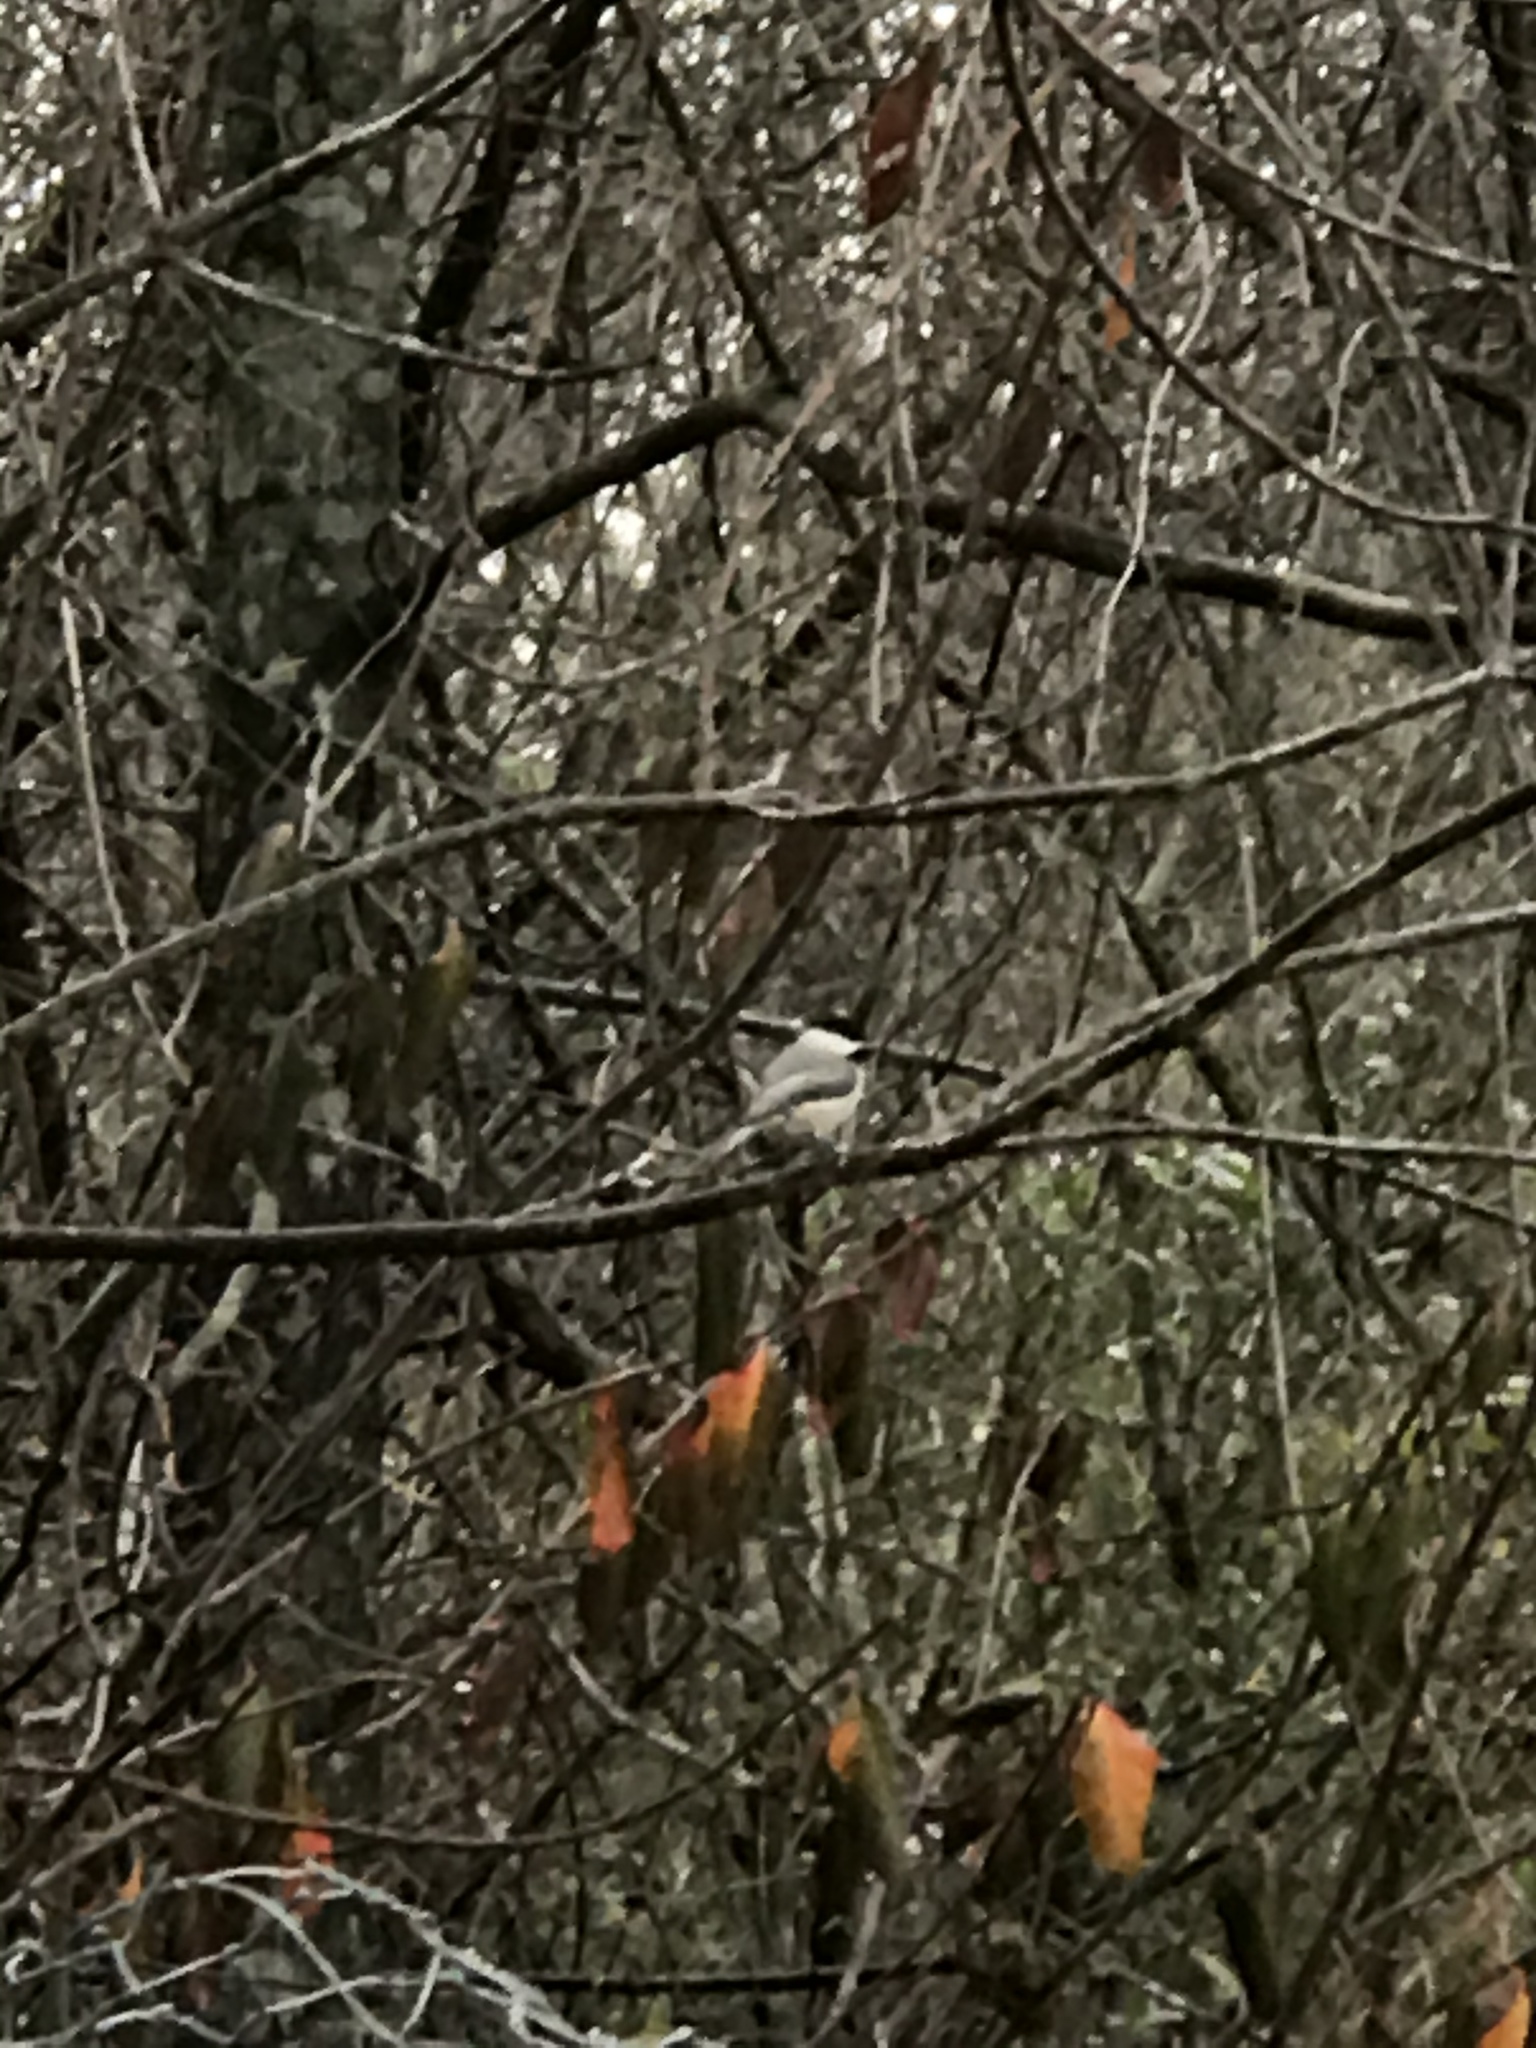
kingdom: Animalia
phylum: Chordata
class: Aves
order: Passeriformes
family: Paridae
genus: Poecile
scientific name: Poecile carolinensis
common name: Carolina chickadee
